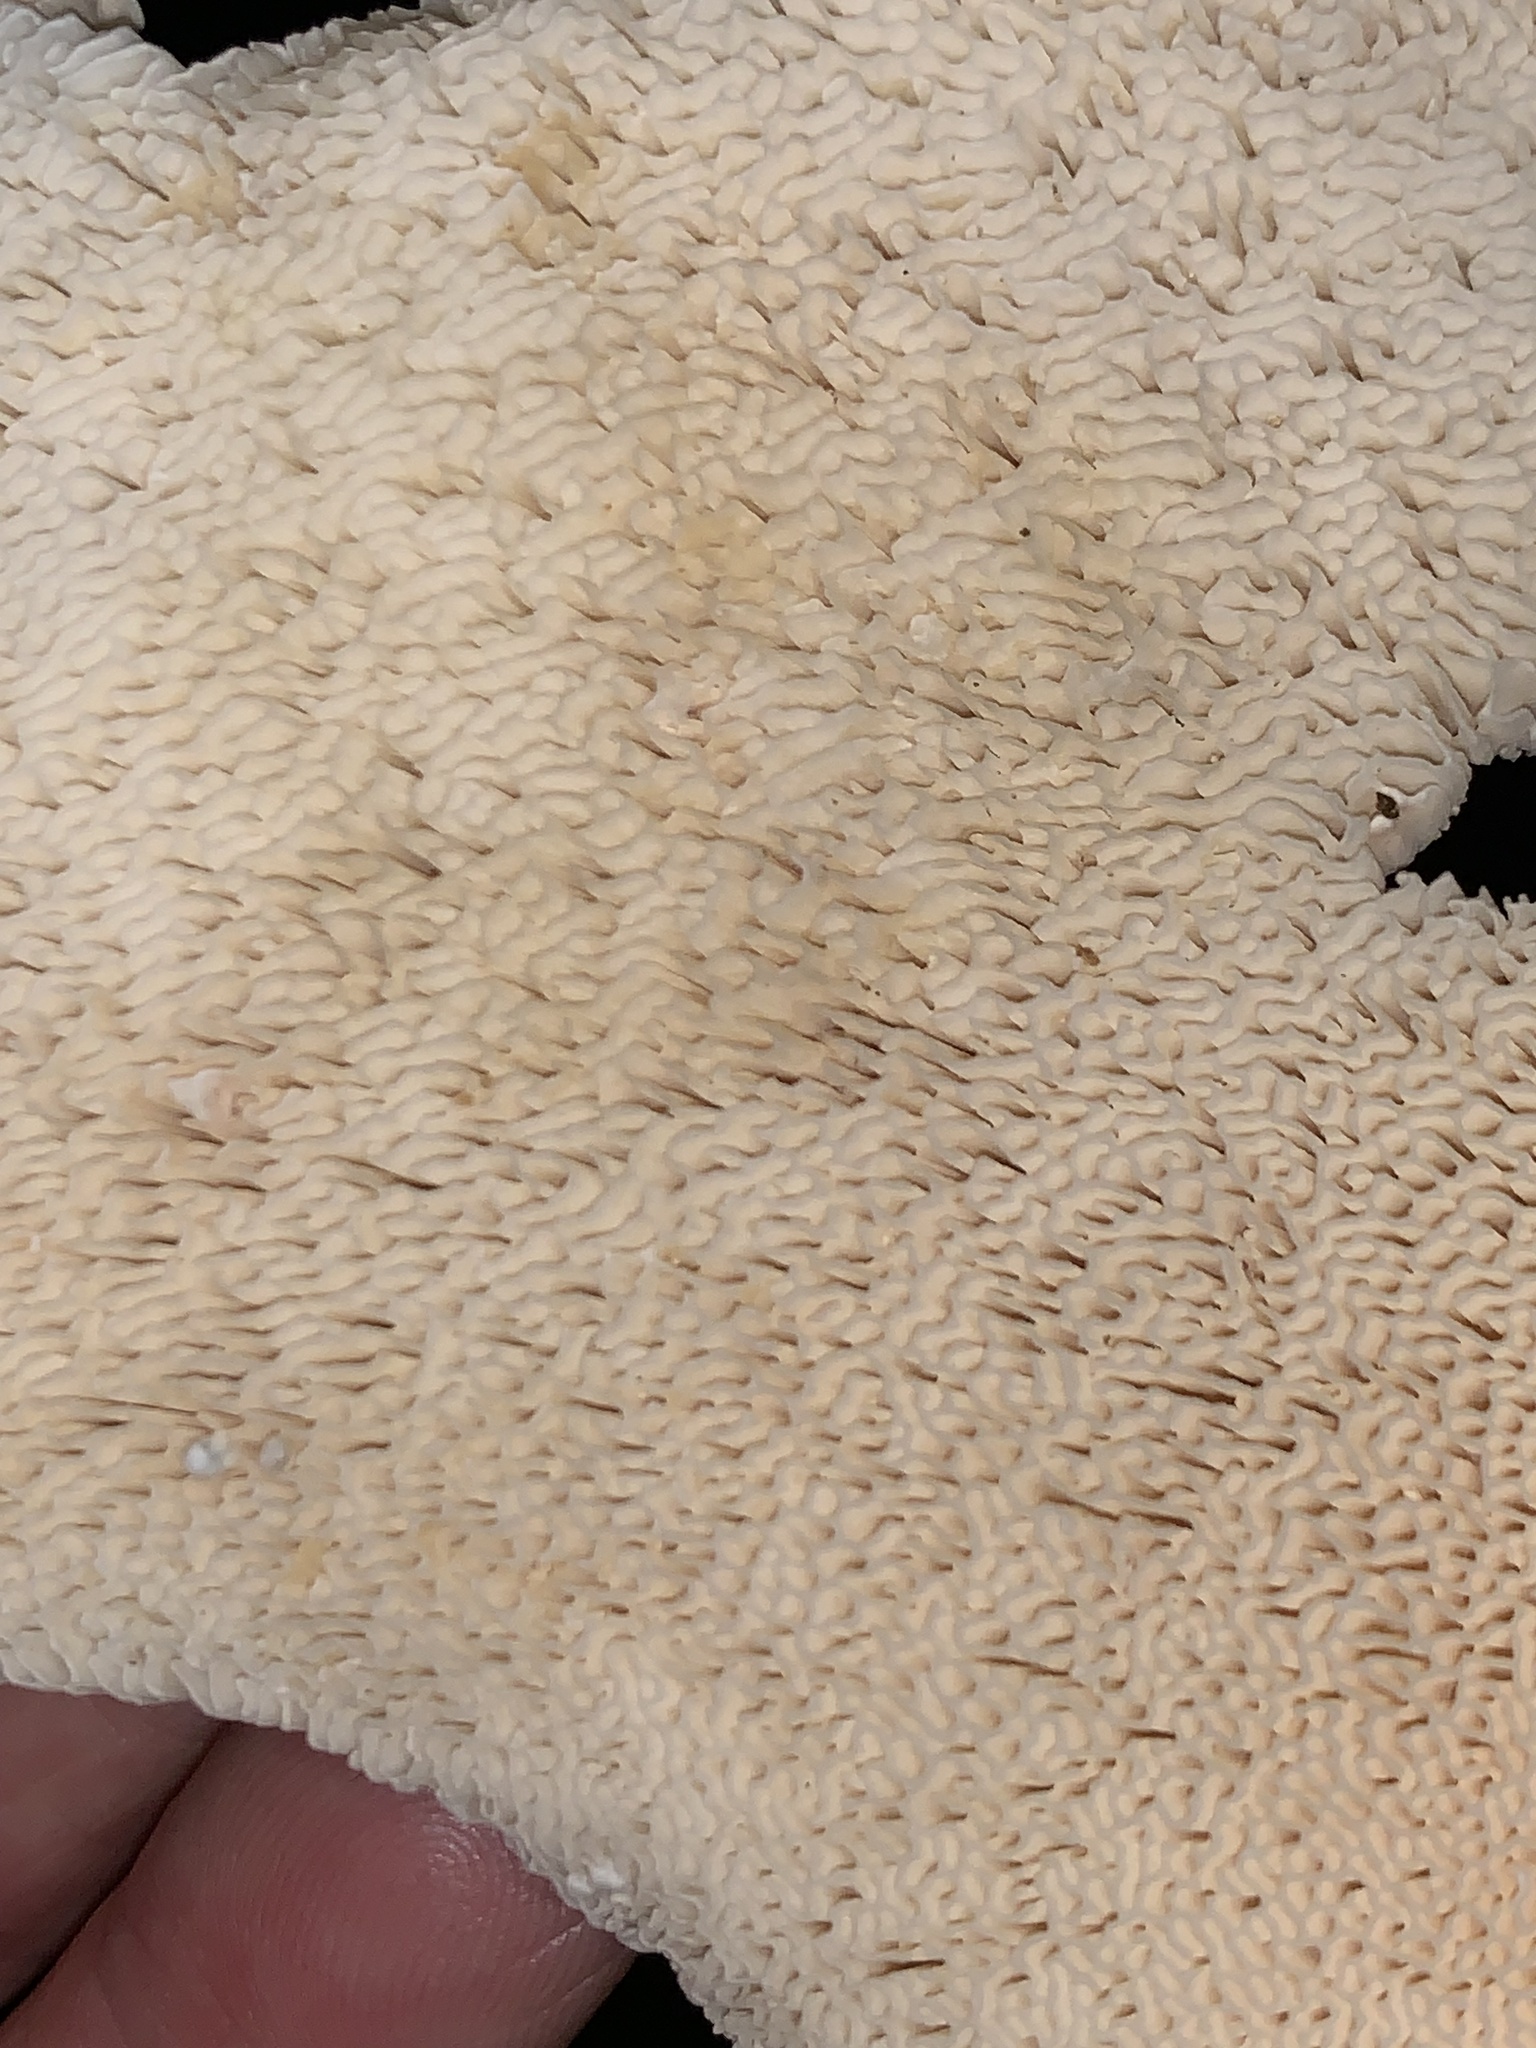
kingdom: Fungi
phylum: Basidiomycota
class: Agaricomycetes
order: Russulales
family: Bondarzewiaceae
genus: Bondarzewia
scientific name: Bondarzewia berkeleyi
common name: Berkeley's polypore
